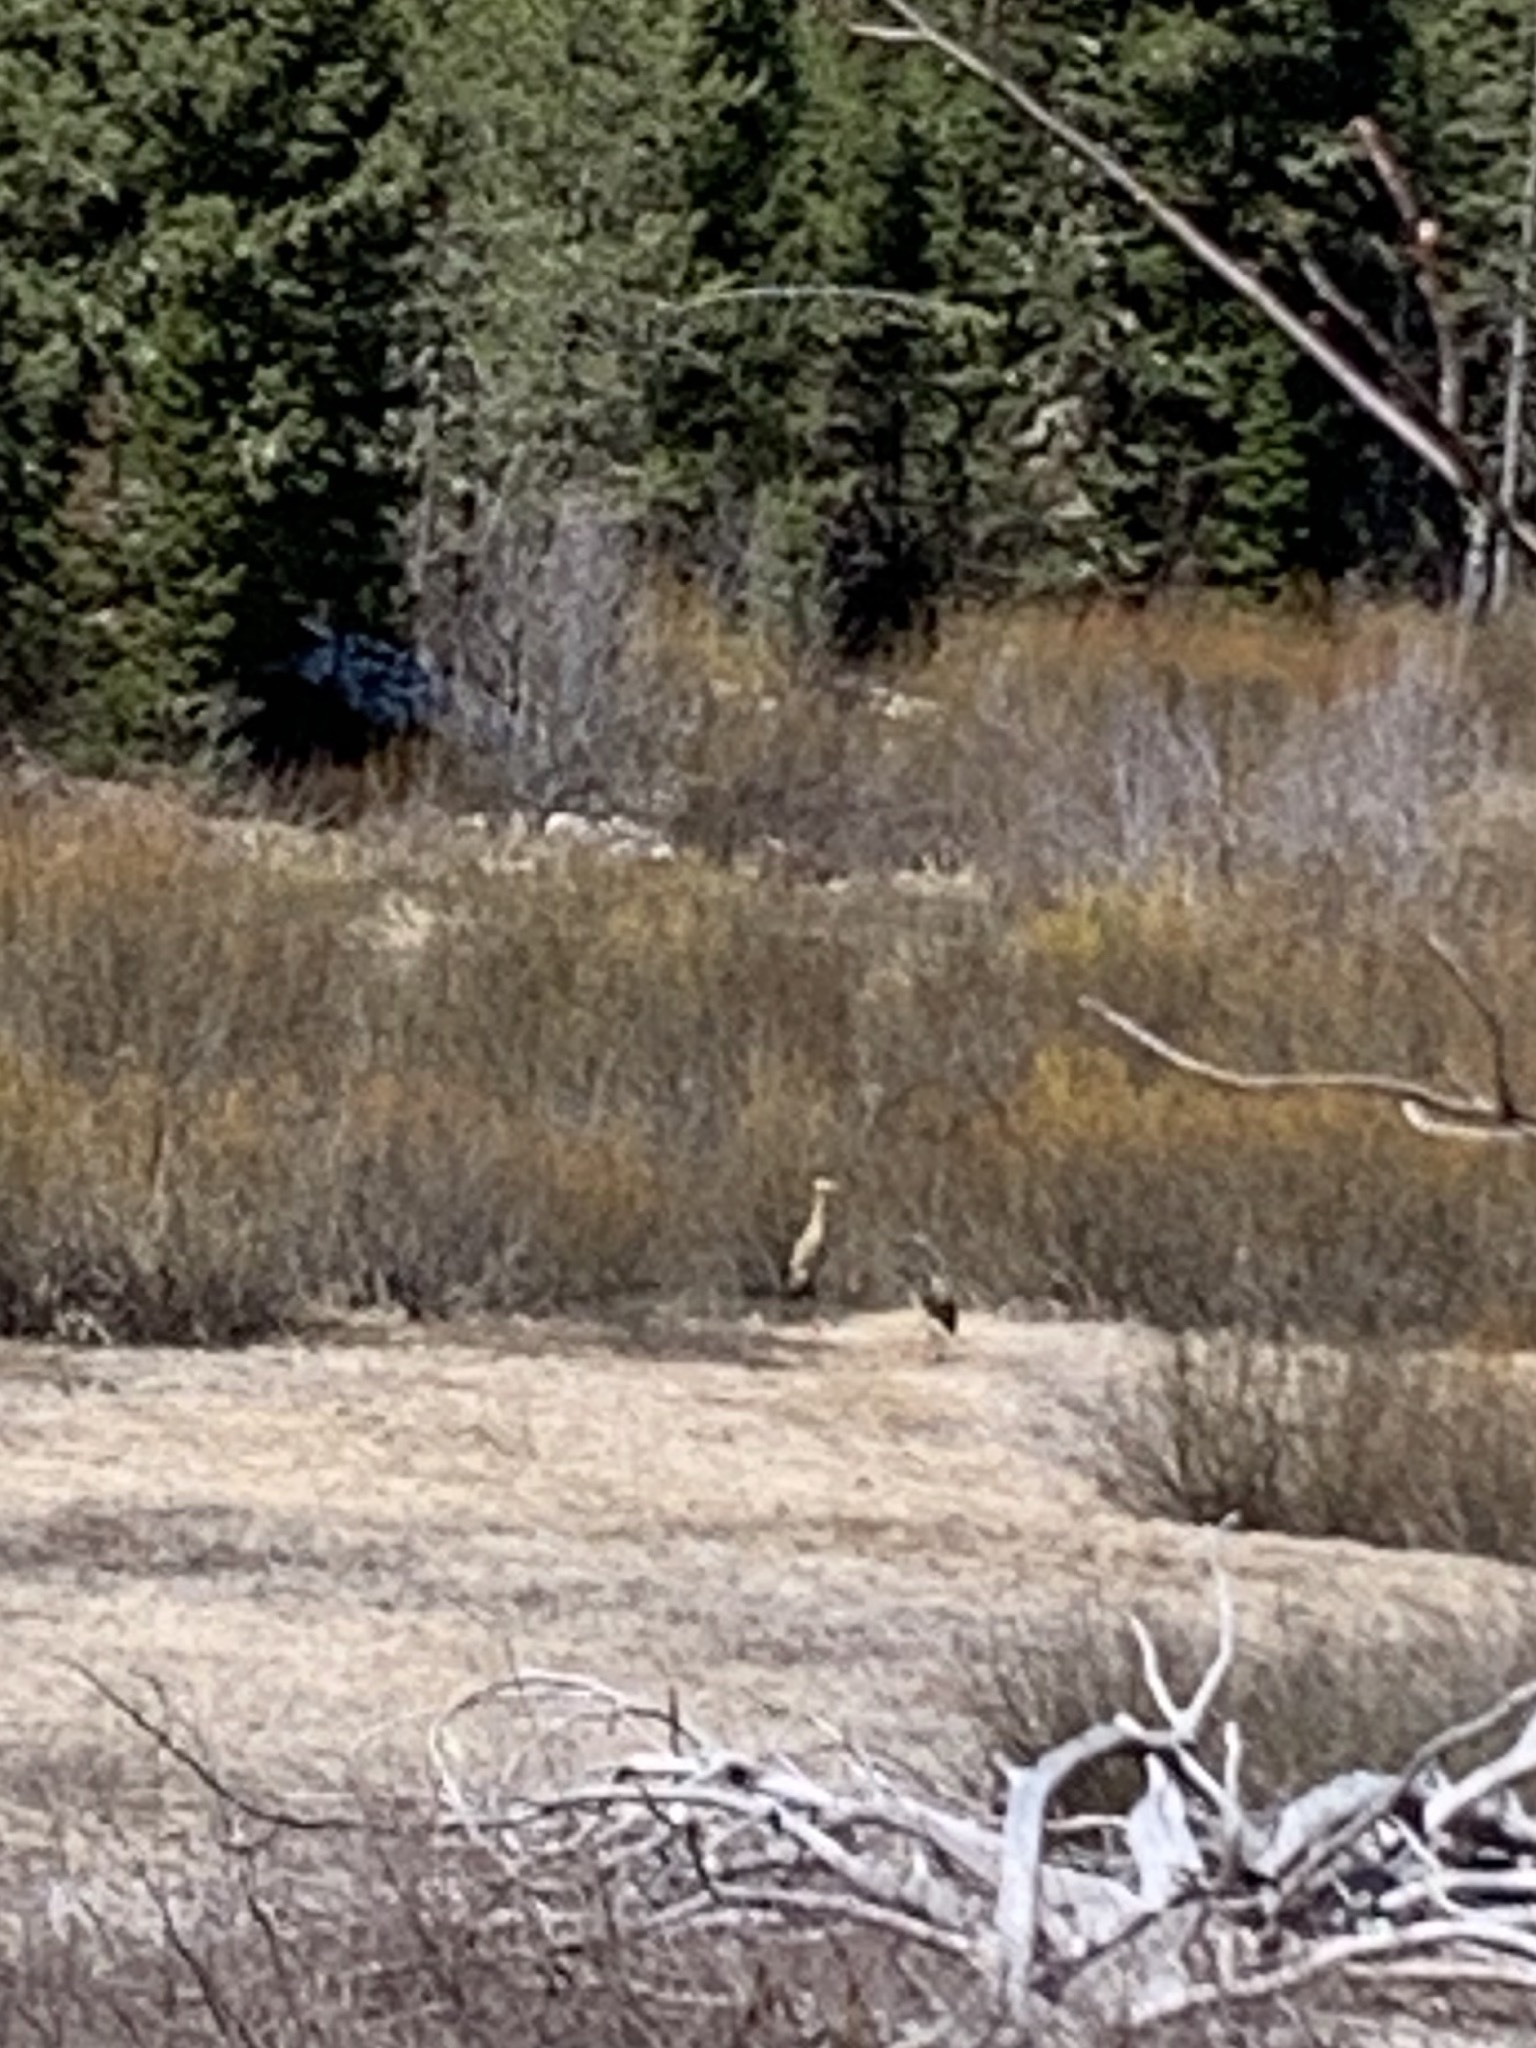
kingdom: Animalia
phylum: Chordata
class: Aves
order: Gruiformes
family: Gruidae
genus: Grus
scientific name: Grus canadensis
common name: Sandhill crane
